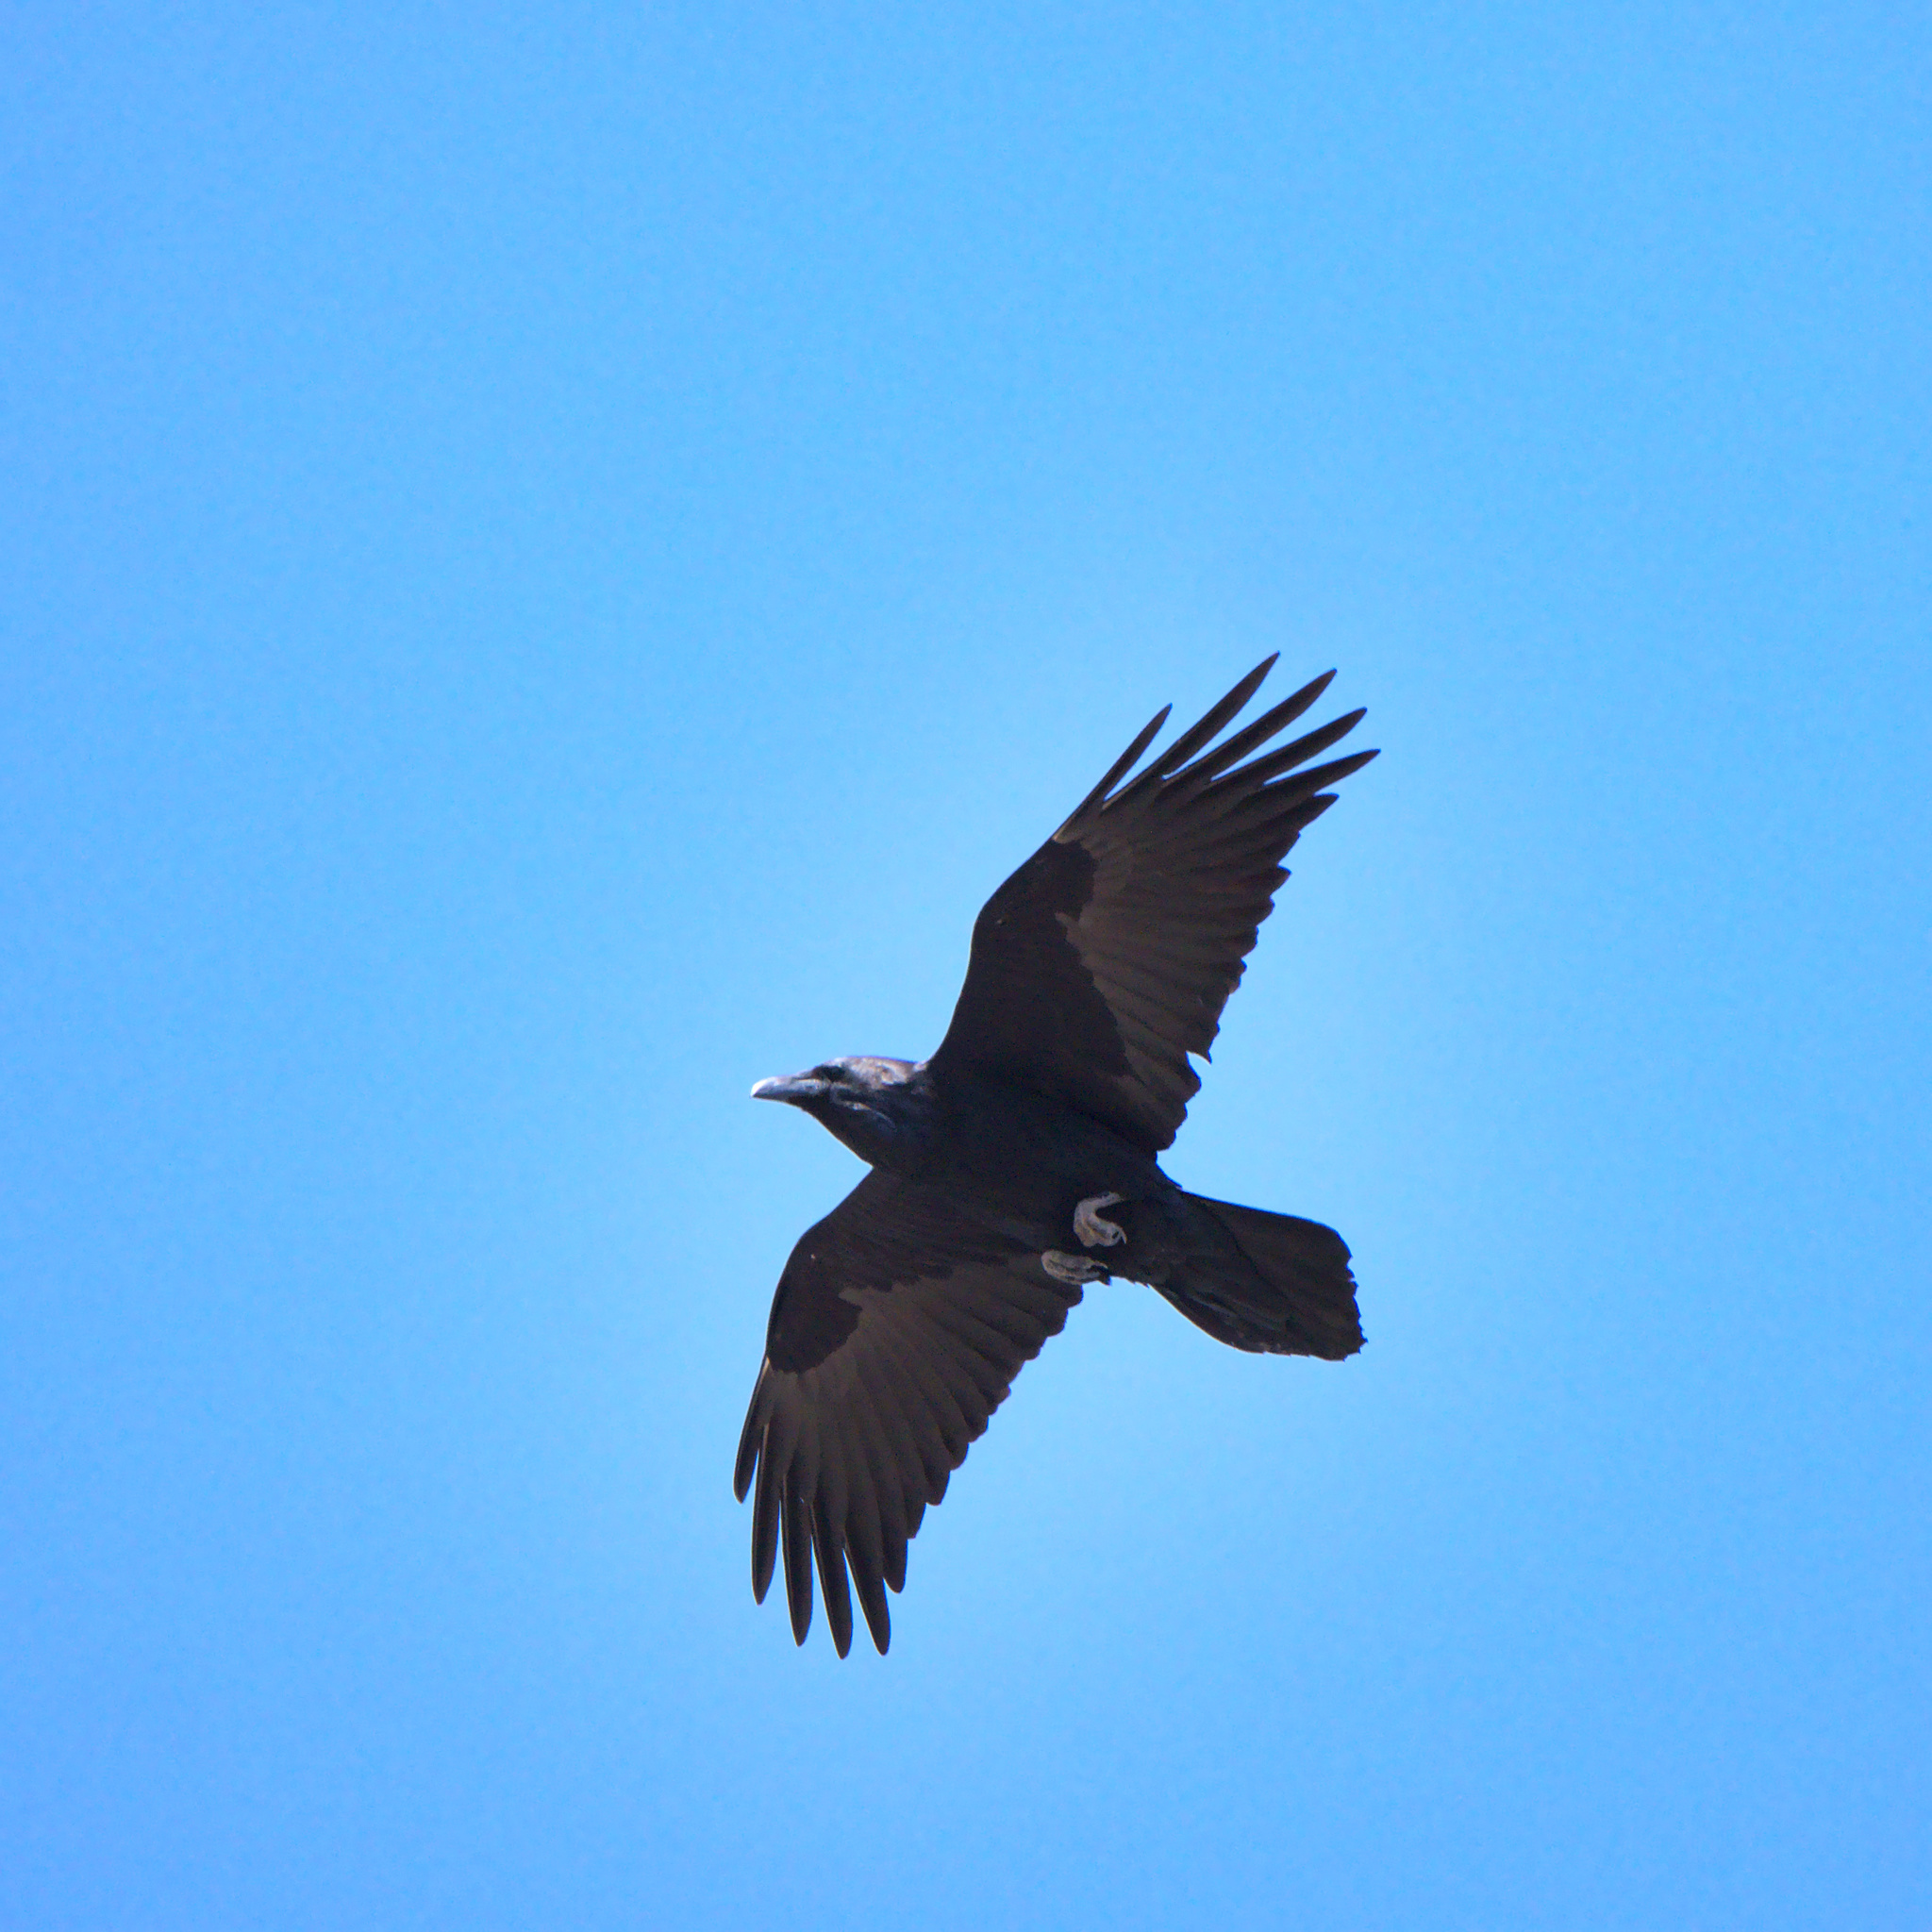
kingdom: Animalia
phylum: Chordata
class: Aves
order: Passeriformes
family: Corvidae
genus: Corvus
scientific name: Corvus corax
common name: Common raven
